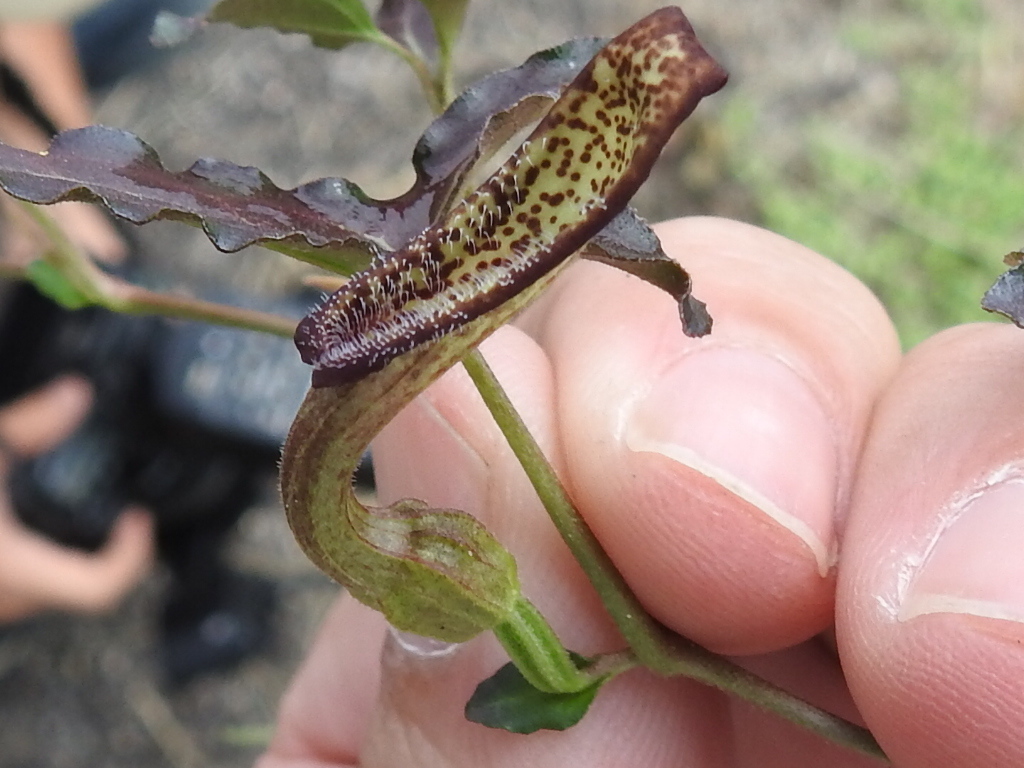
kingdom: Plantae
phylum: Tracheophyta
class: Magnoliopsida
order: Piperales
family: Aristolochiaceae
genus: Aristolochia
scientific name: Aristolochia watsonii
